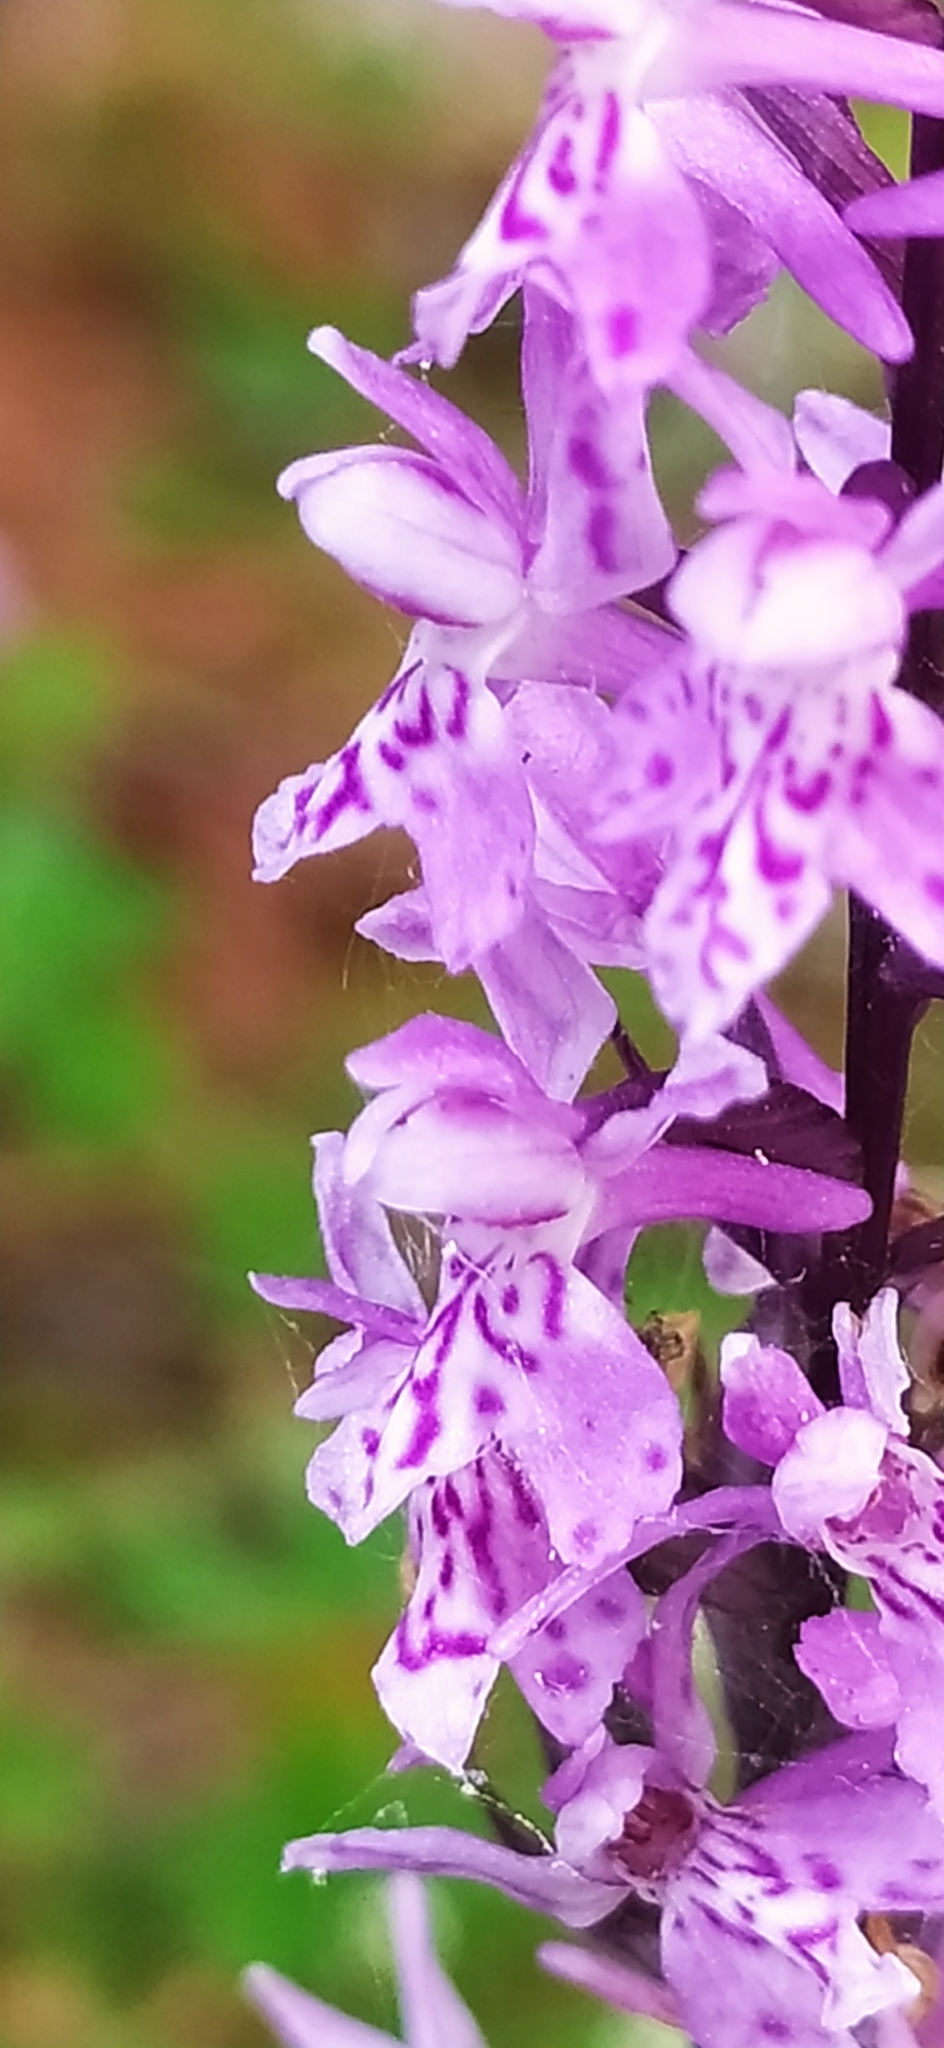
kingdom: Plantae
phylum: Tracheophyta
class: Liliopsida
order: Asparagales
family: Orchidaceae
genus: Dactylorhiza
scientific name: Dactylorhiza maculata
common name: Heath spotted-orchid
